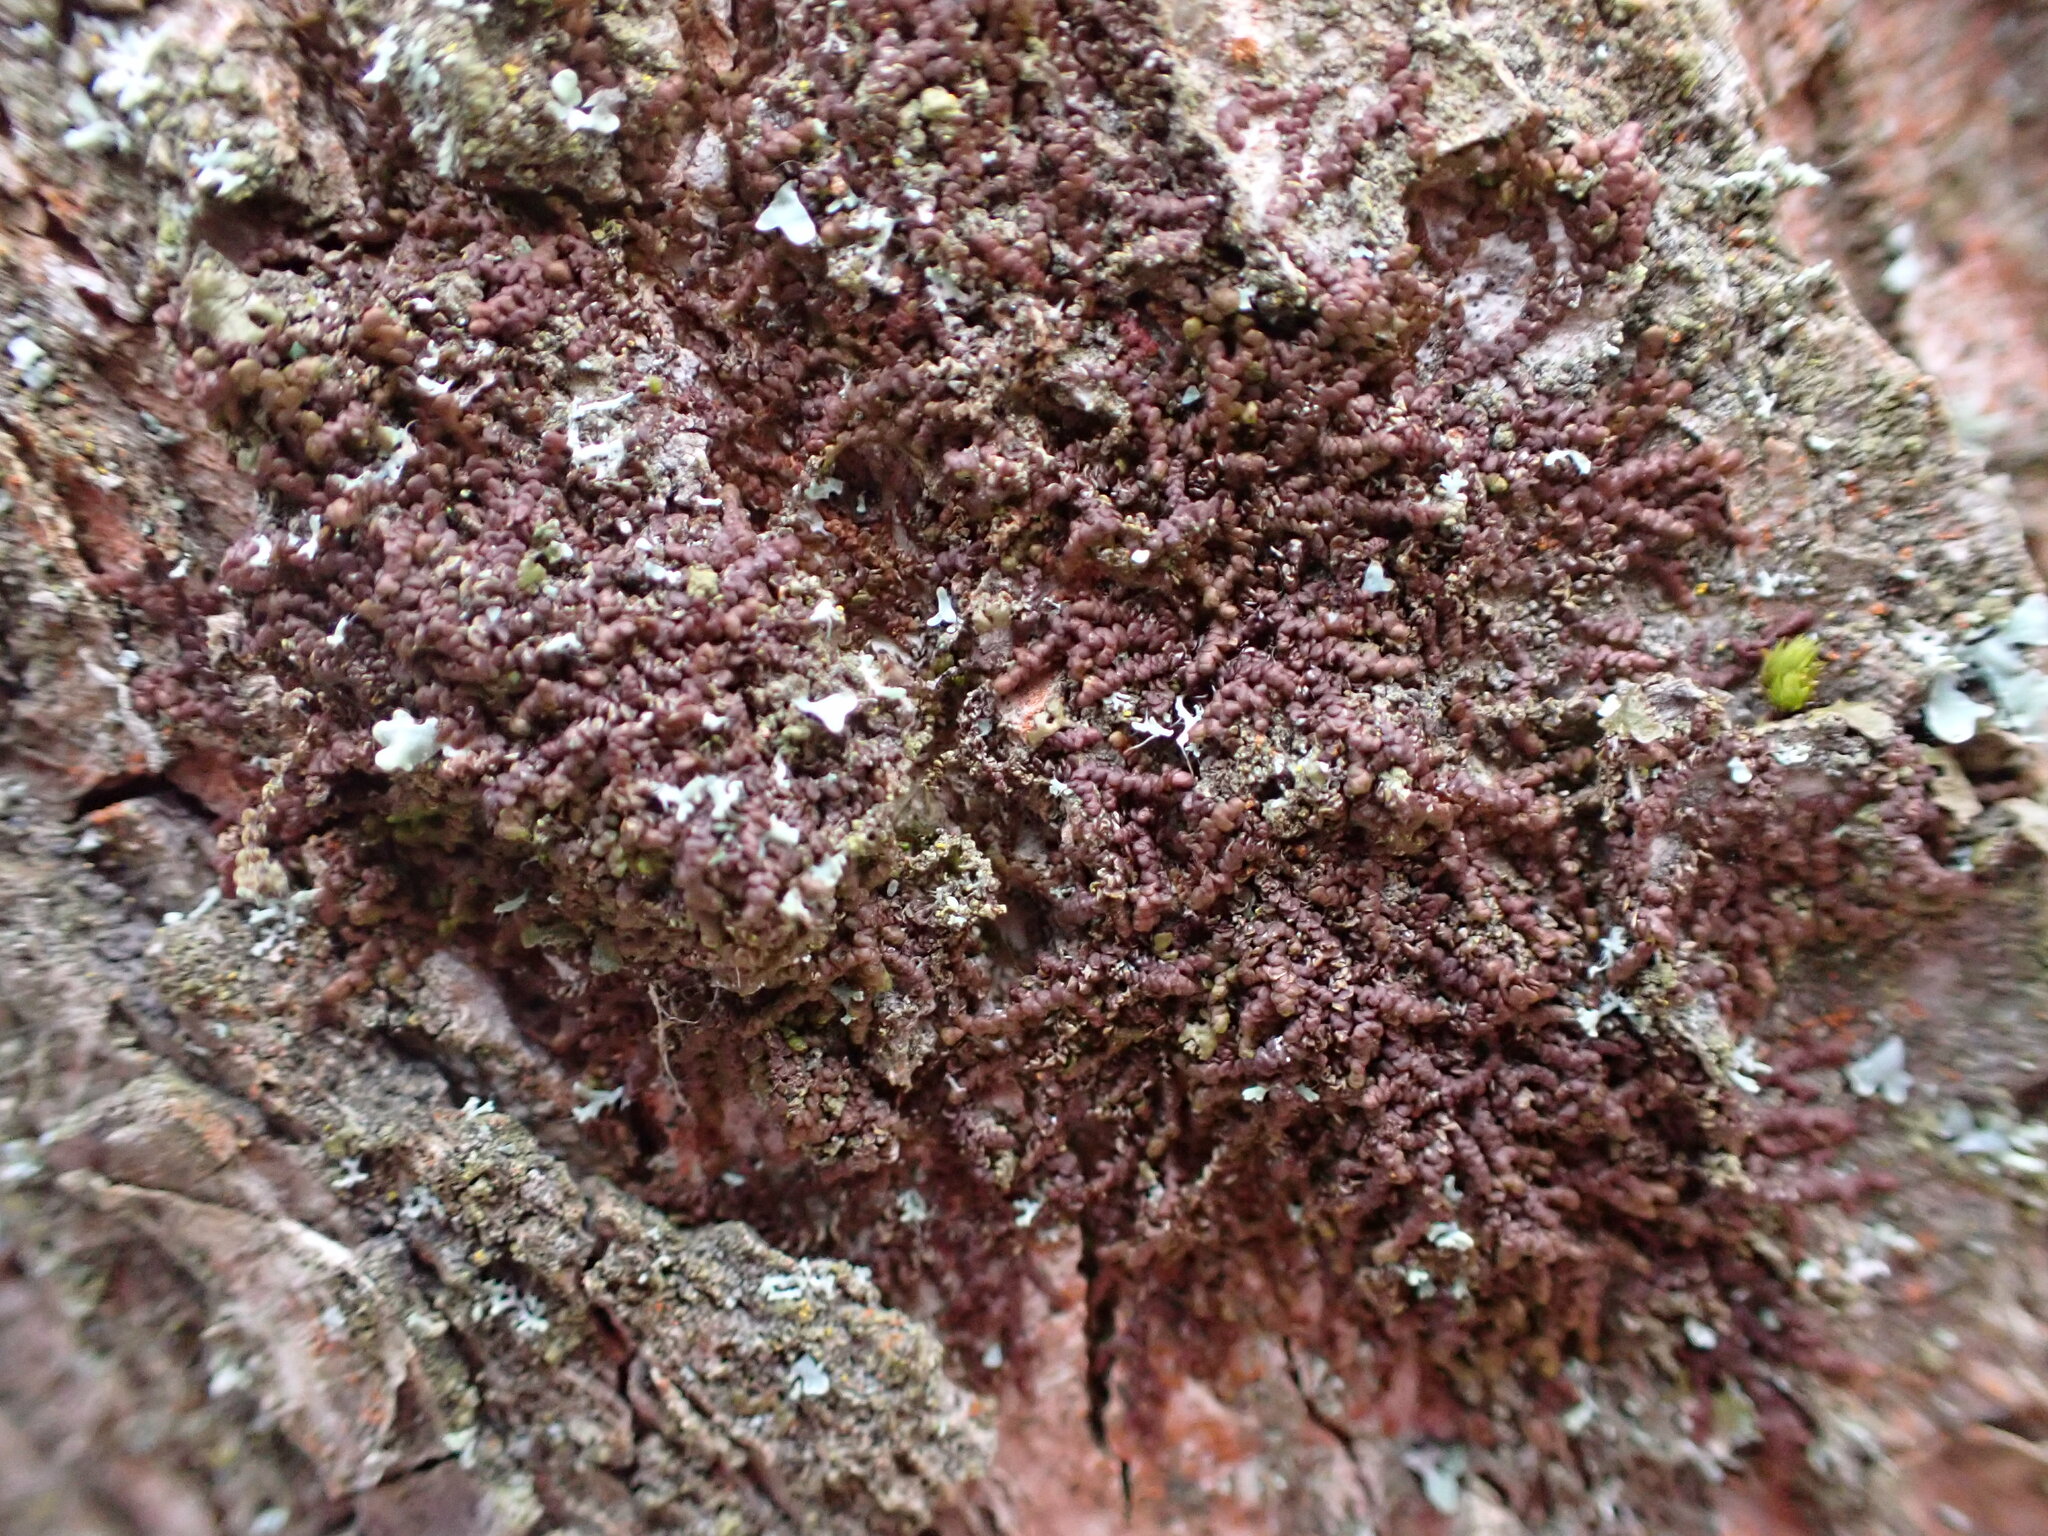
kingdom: Plantae
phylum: Marchantiophyta
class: Jungermanniopsida
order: Porellales
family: Frullaniaceae
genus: Frullania
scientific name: Frullania dilatata
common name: Dilated scalewort
